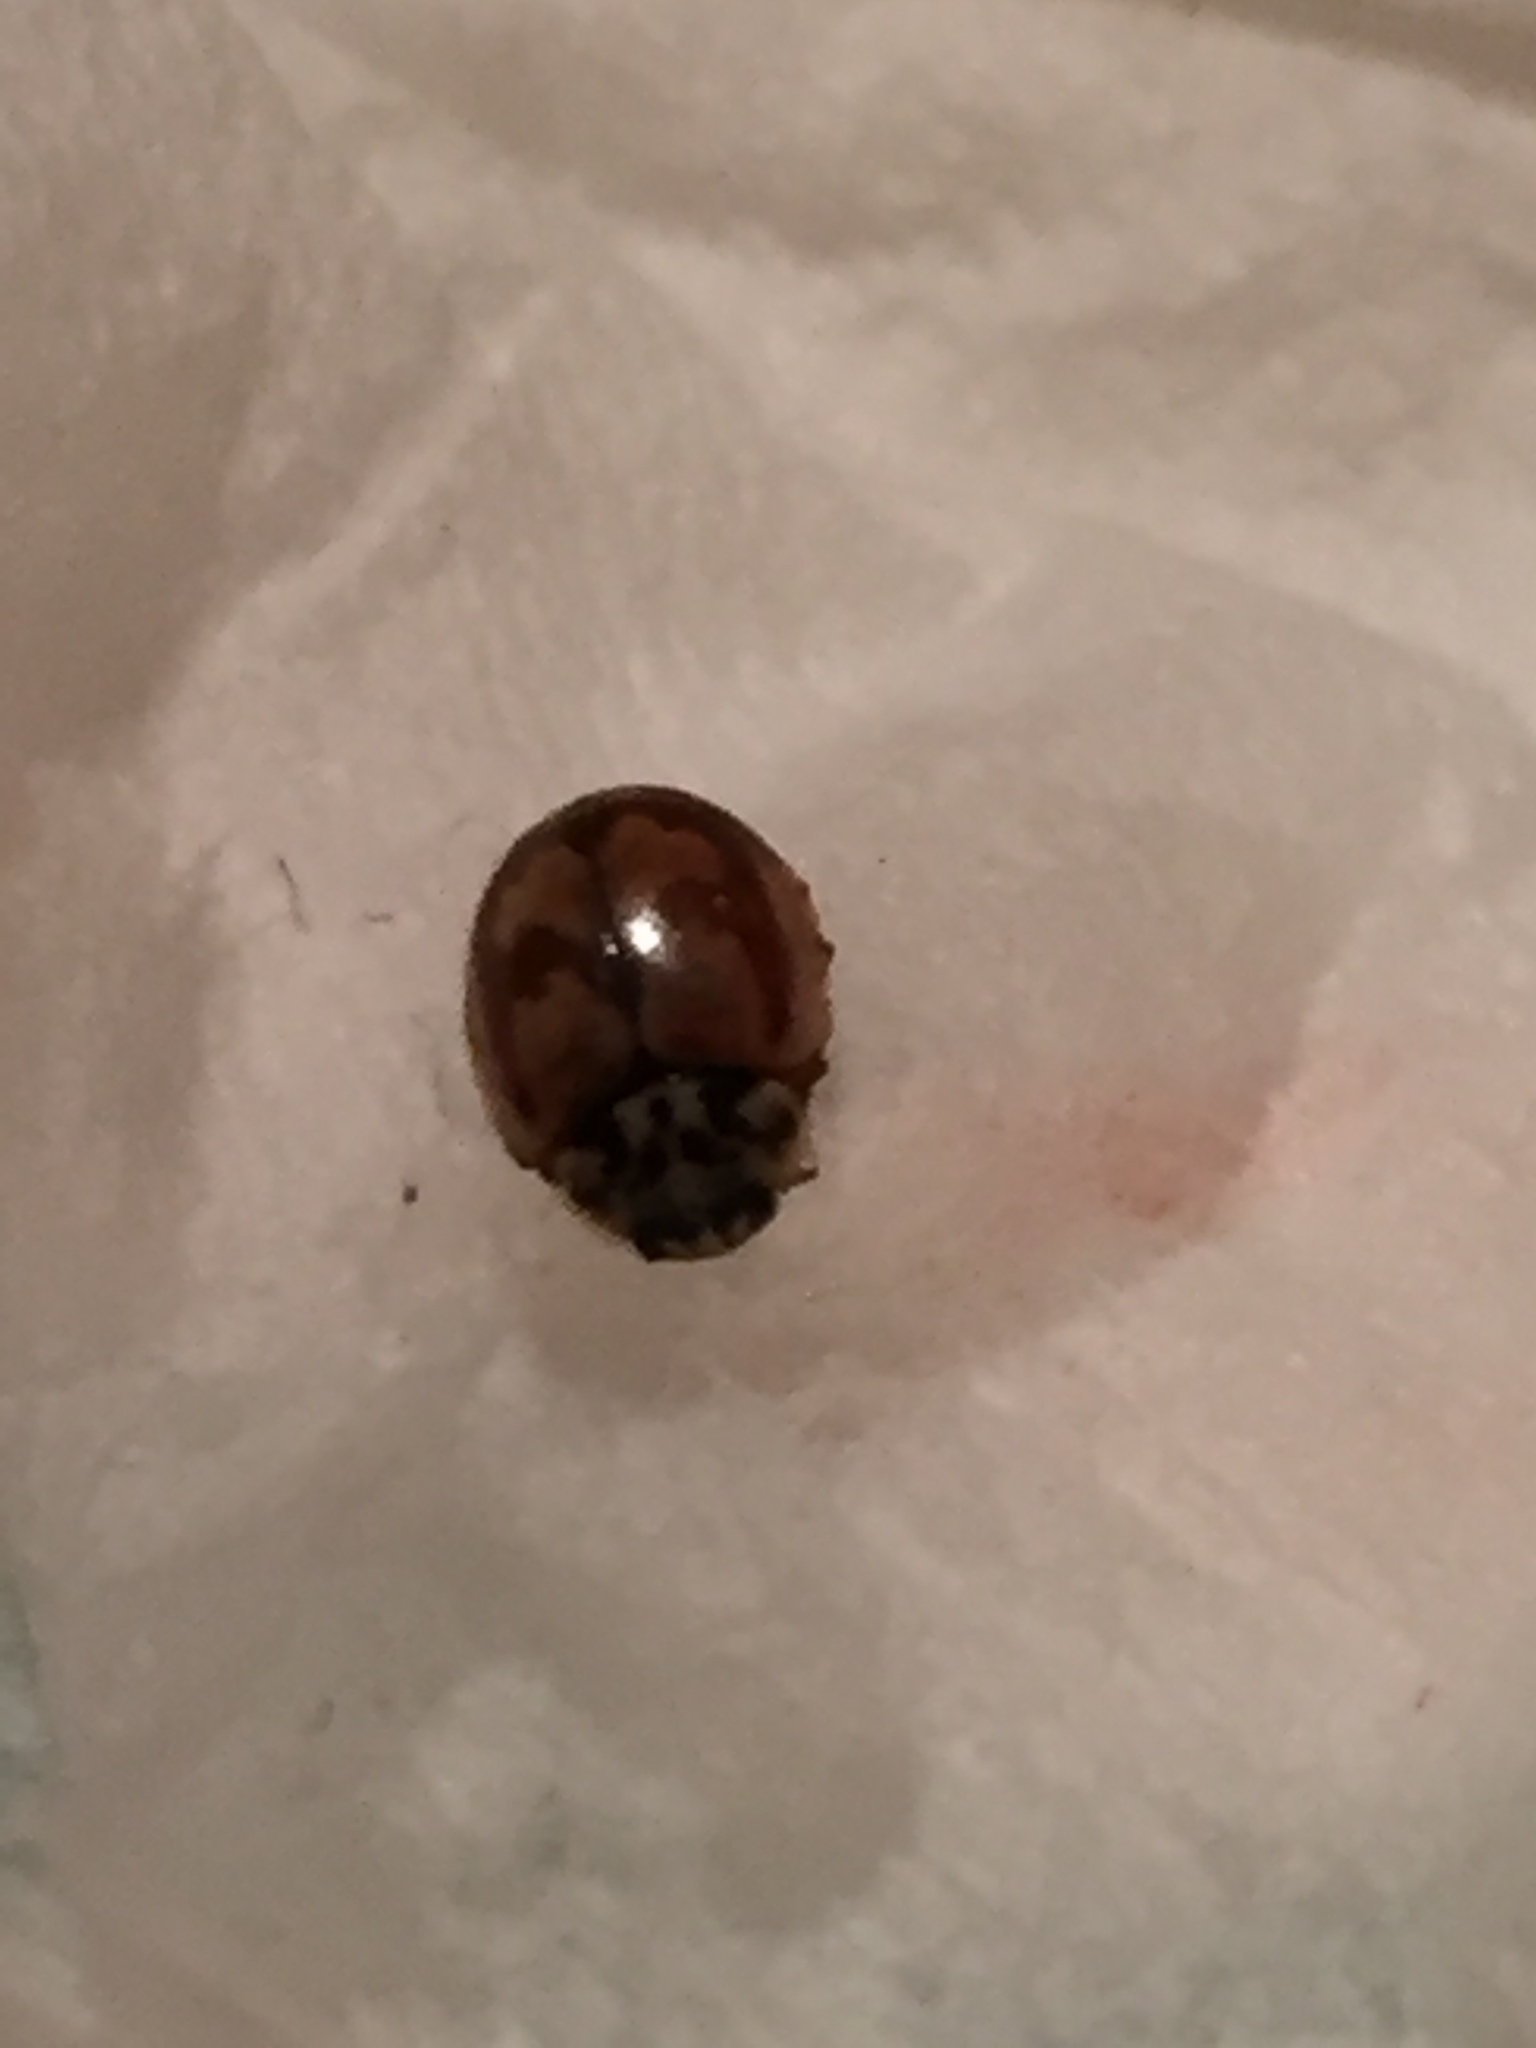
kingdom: Animalia
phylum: Arthropoda
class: Insecta
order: Coleoptera
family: Coccinellidae
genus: Mulsantina
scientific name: Mulsantina picta
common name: Painted ladybird
